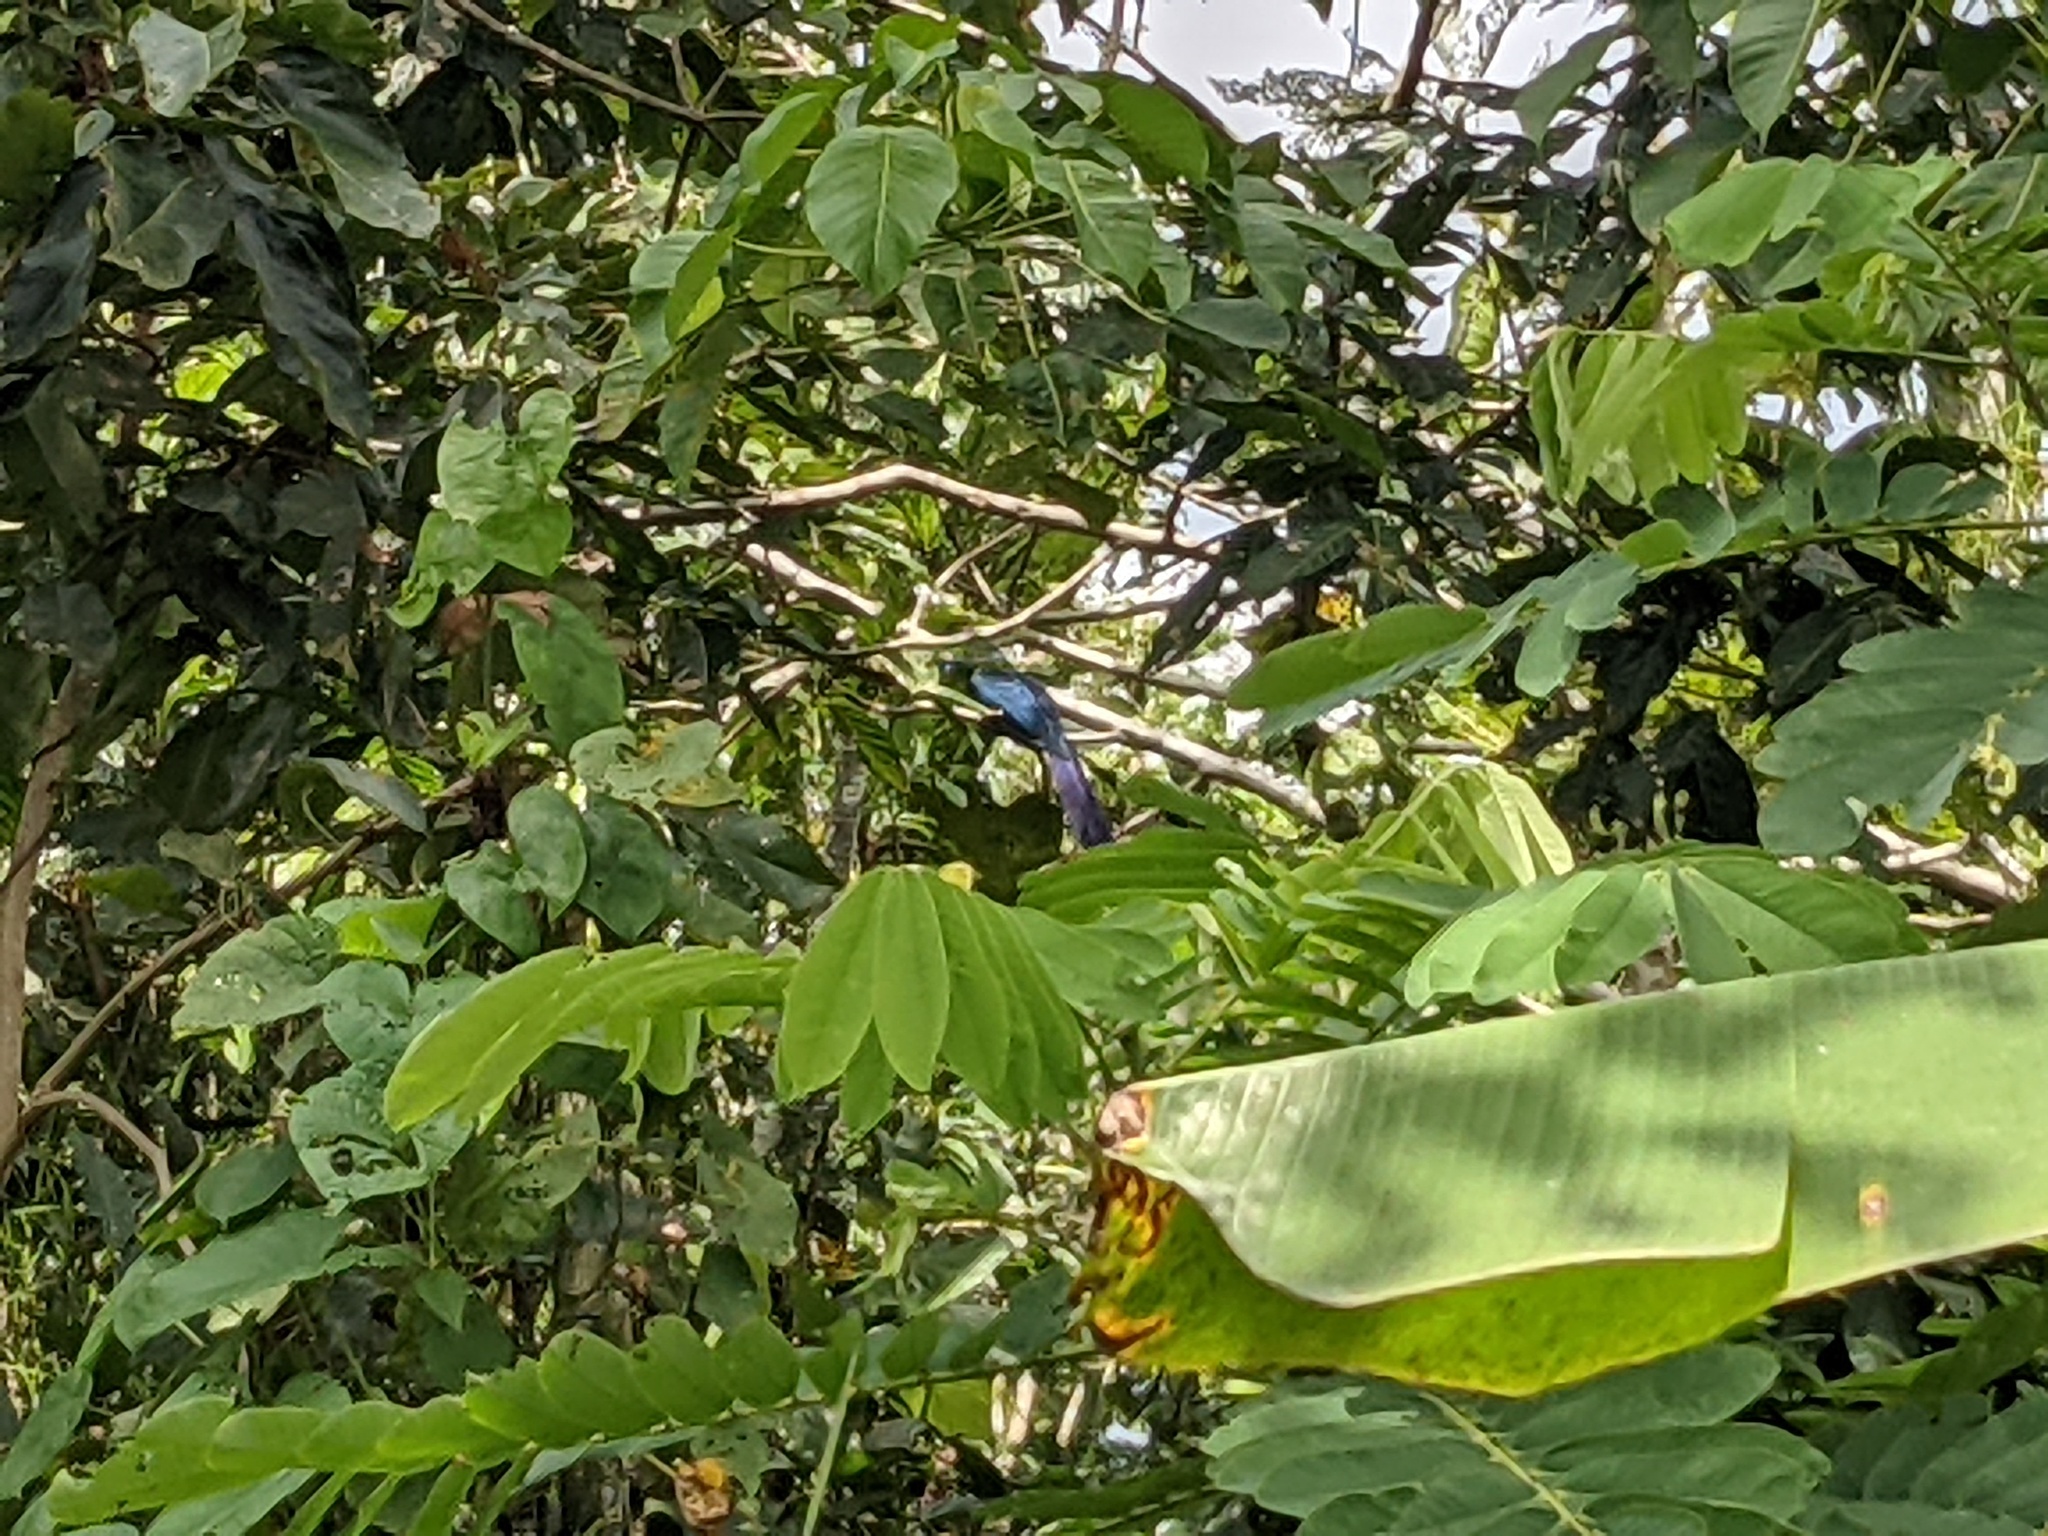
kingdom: Animalia
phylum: Chordata
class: Aves
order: Cuculiformes
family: Cuculidae
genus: Crotophaga
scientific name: Crotophaga major
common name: Greater ani
